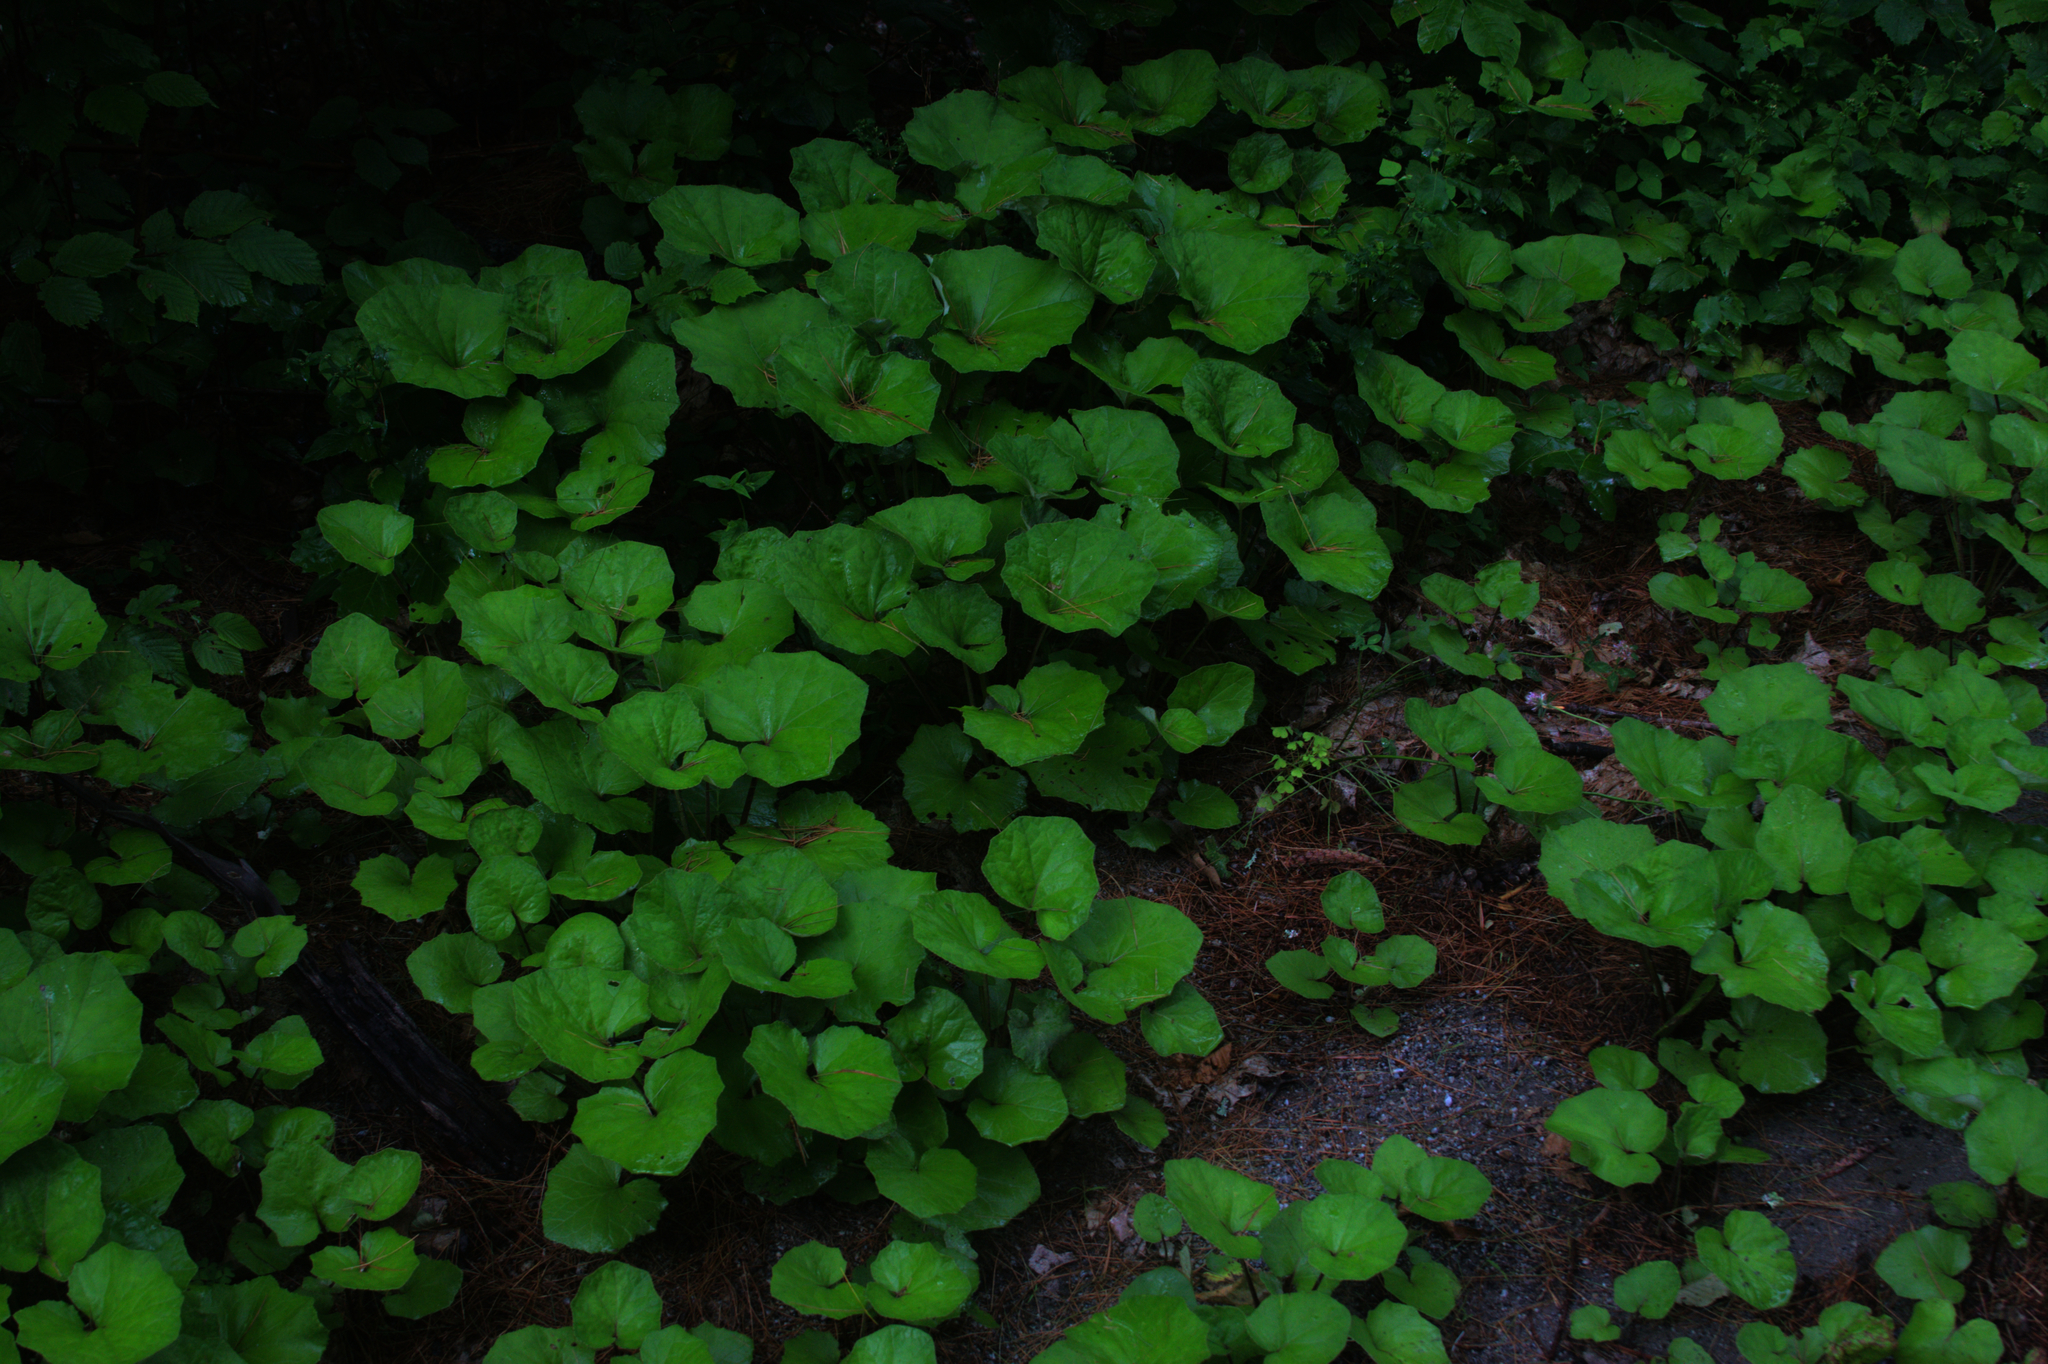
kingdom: Plantae
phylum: Tracheophyta
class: Magnoliopsida
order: Asterales
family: Asteraceae
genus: Tussilago
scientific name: Tussilago farfara
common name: Coltsfoot
